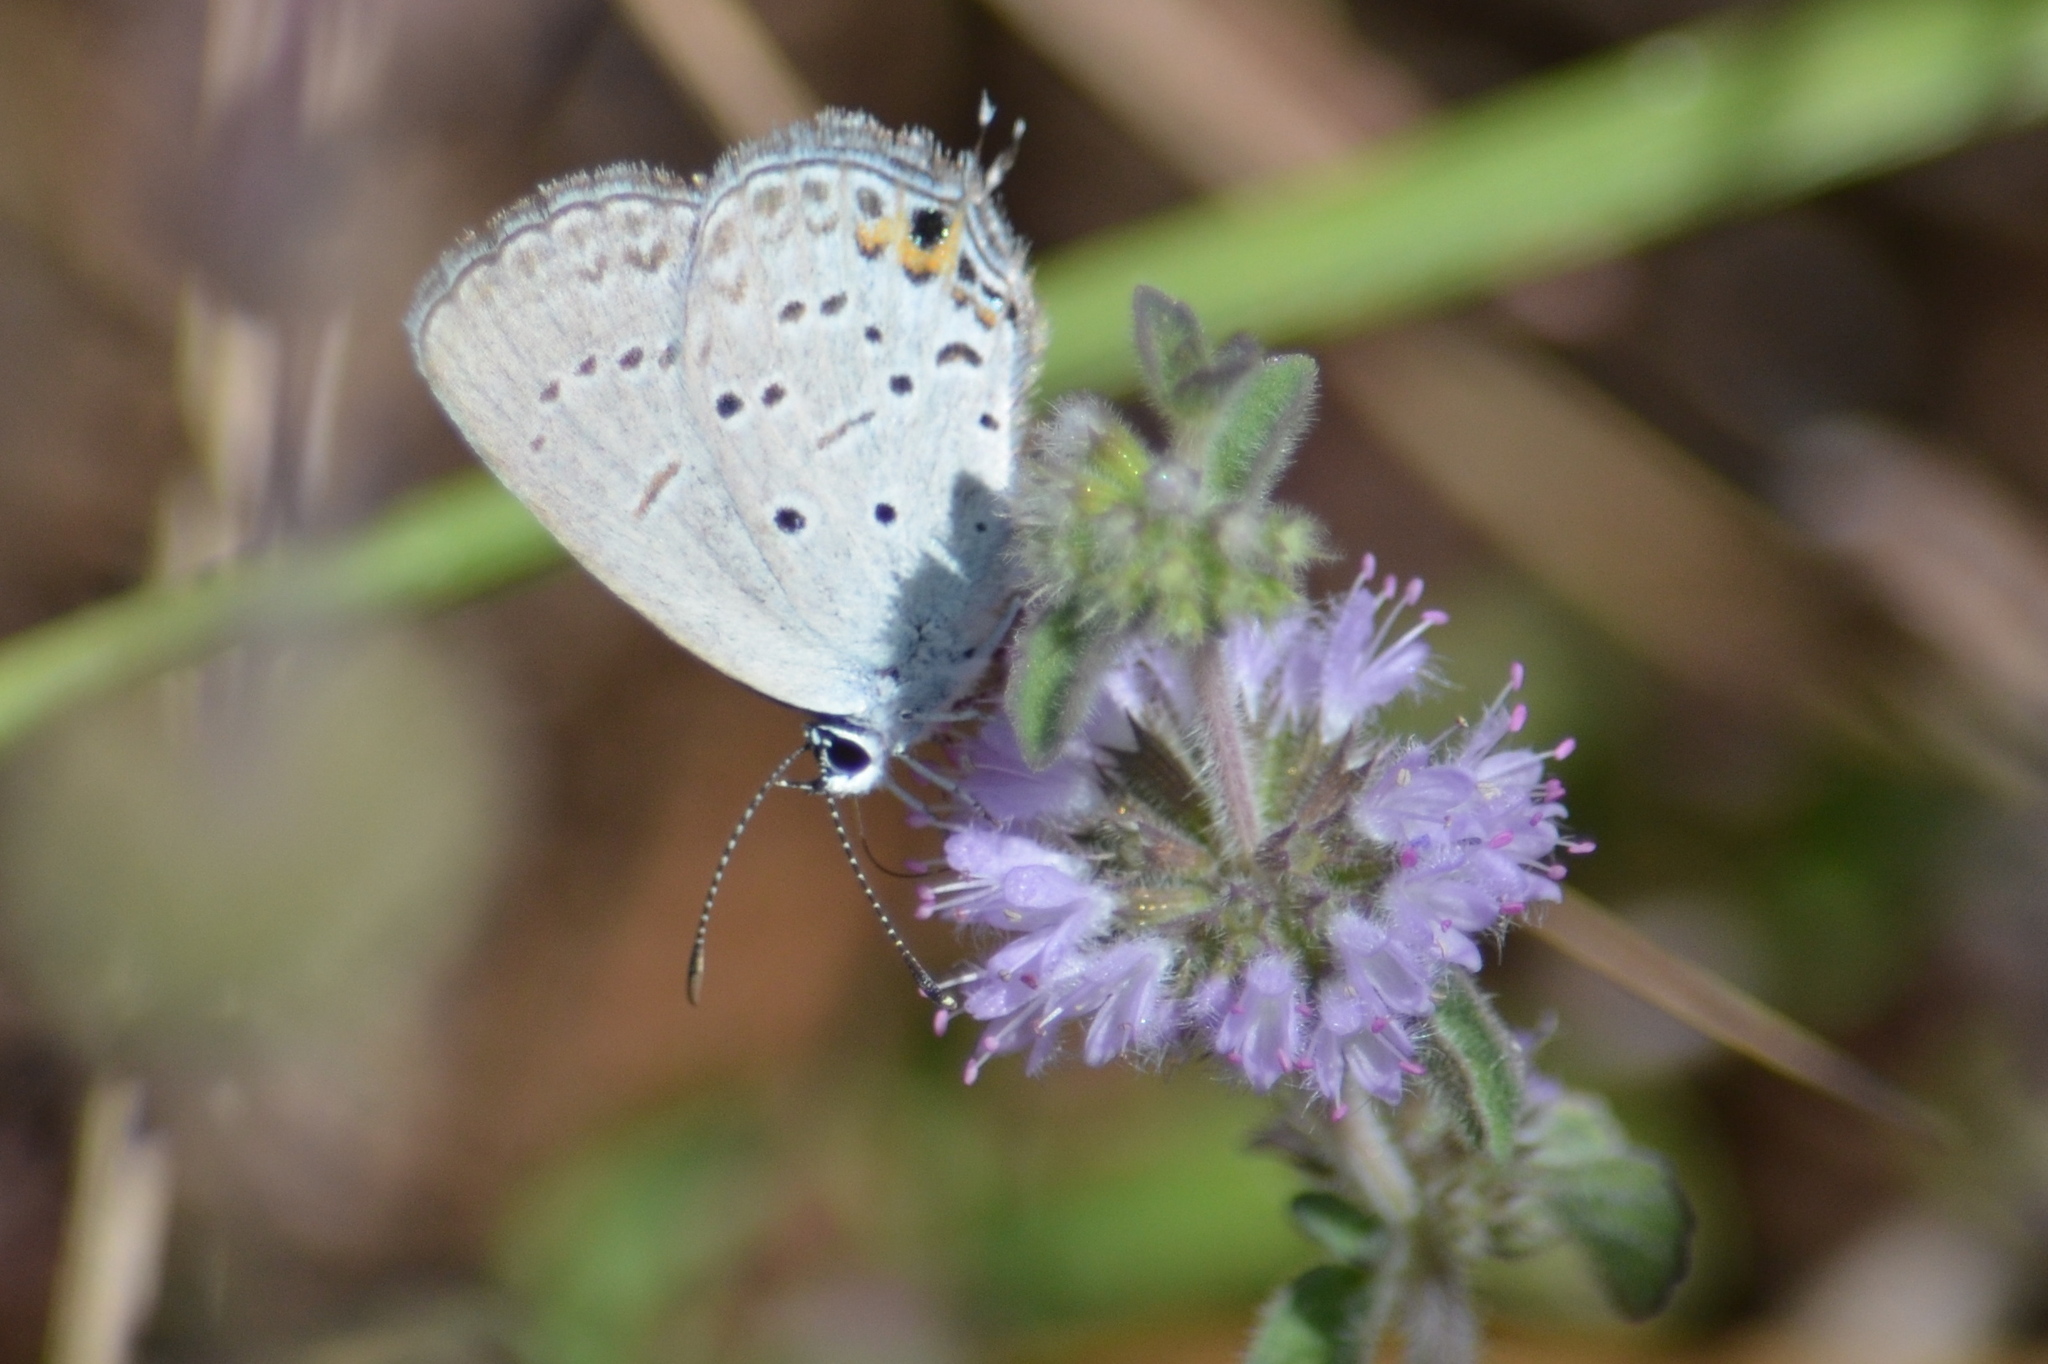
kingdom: Animalia
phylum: Arthropoda
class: Insecta
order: Lepidoptera
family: Lycaenidae
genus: Elkalyce
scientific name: Elkalyce comyntas
